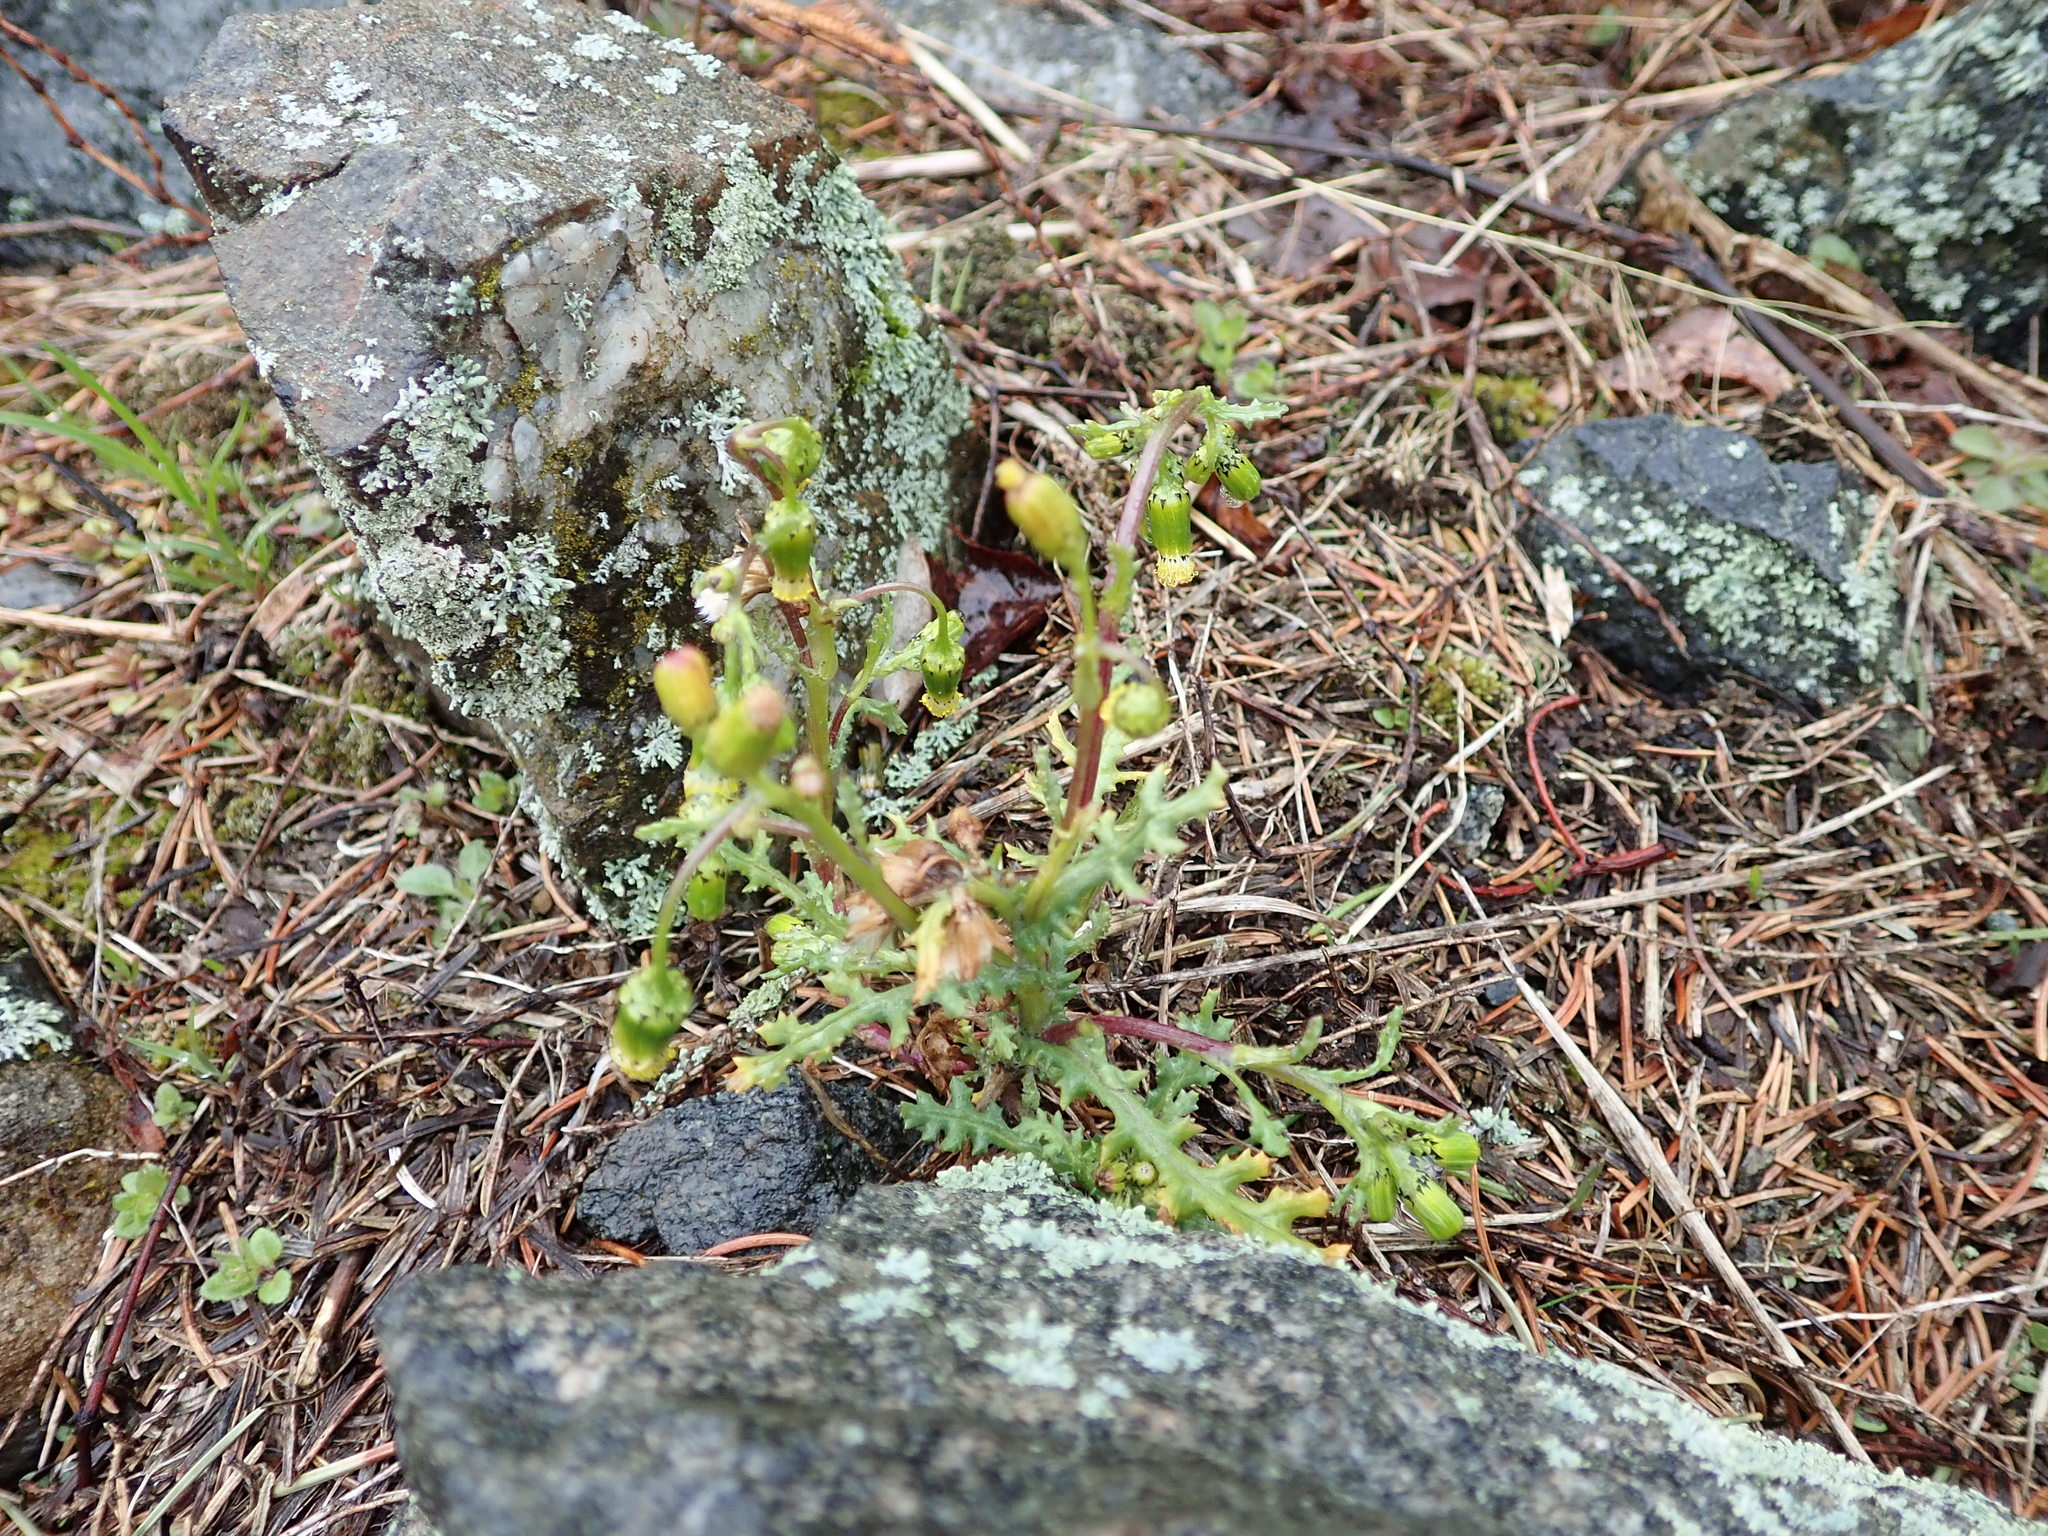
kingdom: Plantae
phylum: Tracheophyta
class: Magnoliopsida
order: Asterales
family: Asteraceae
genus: Senecio
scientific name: Senecio vulgaris
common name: Old-man-in-the-spring
